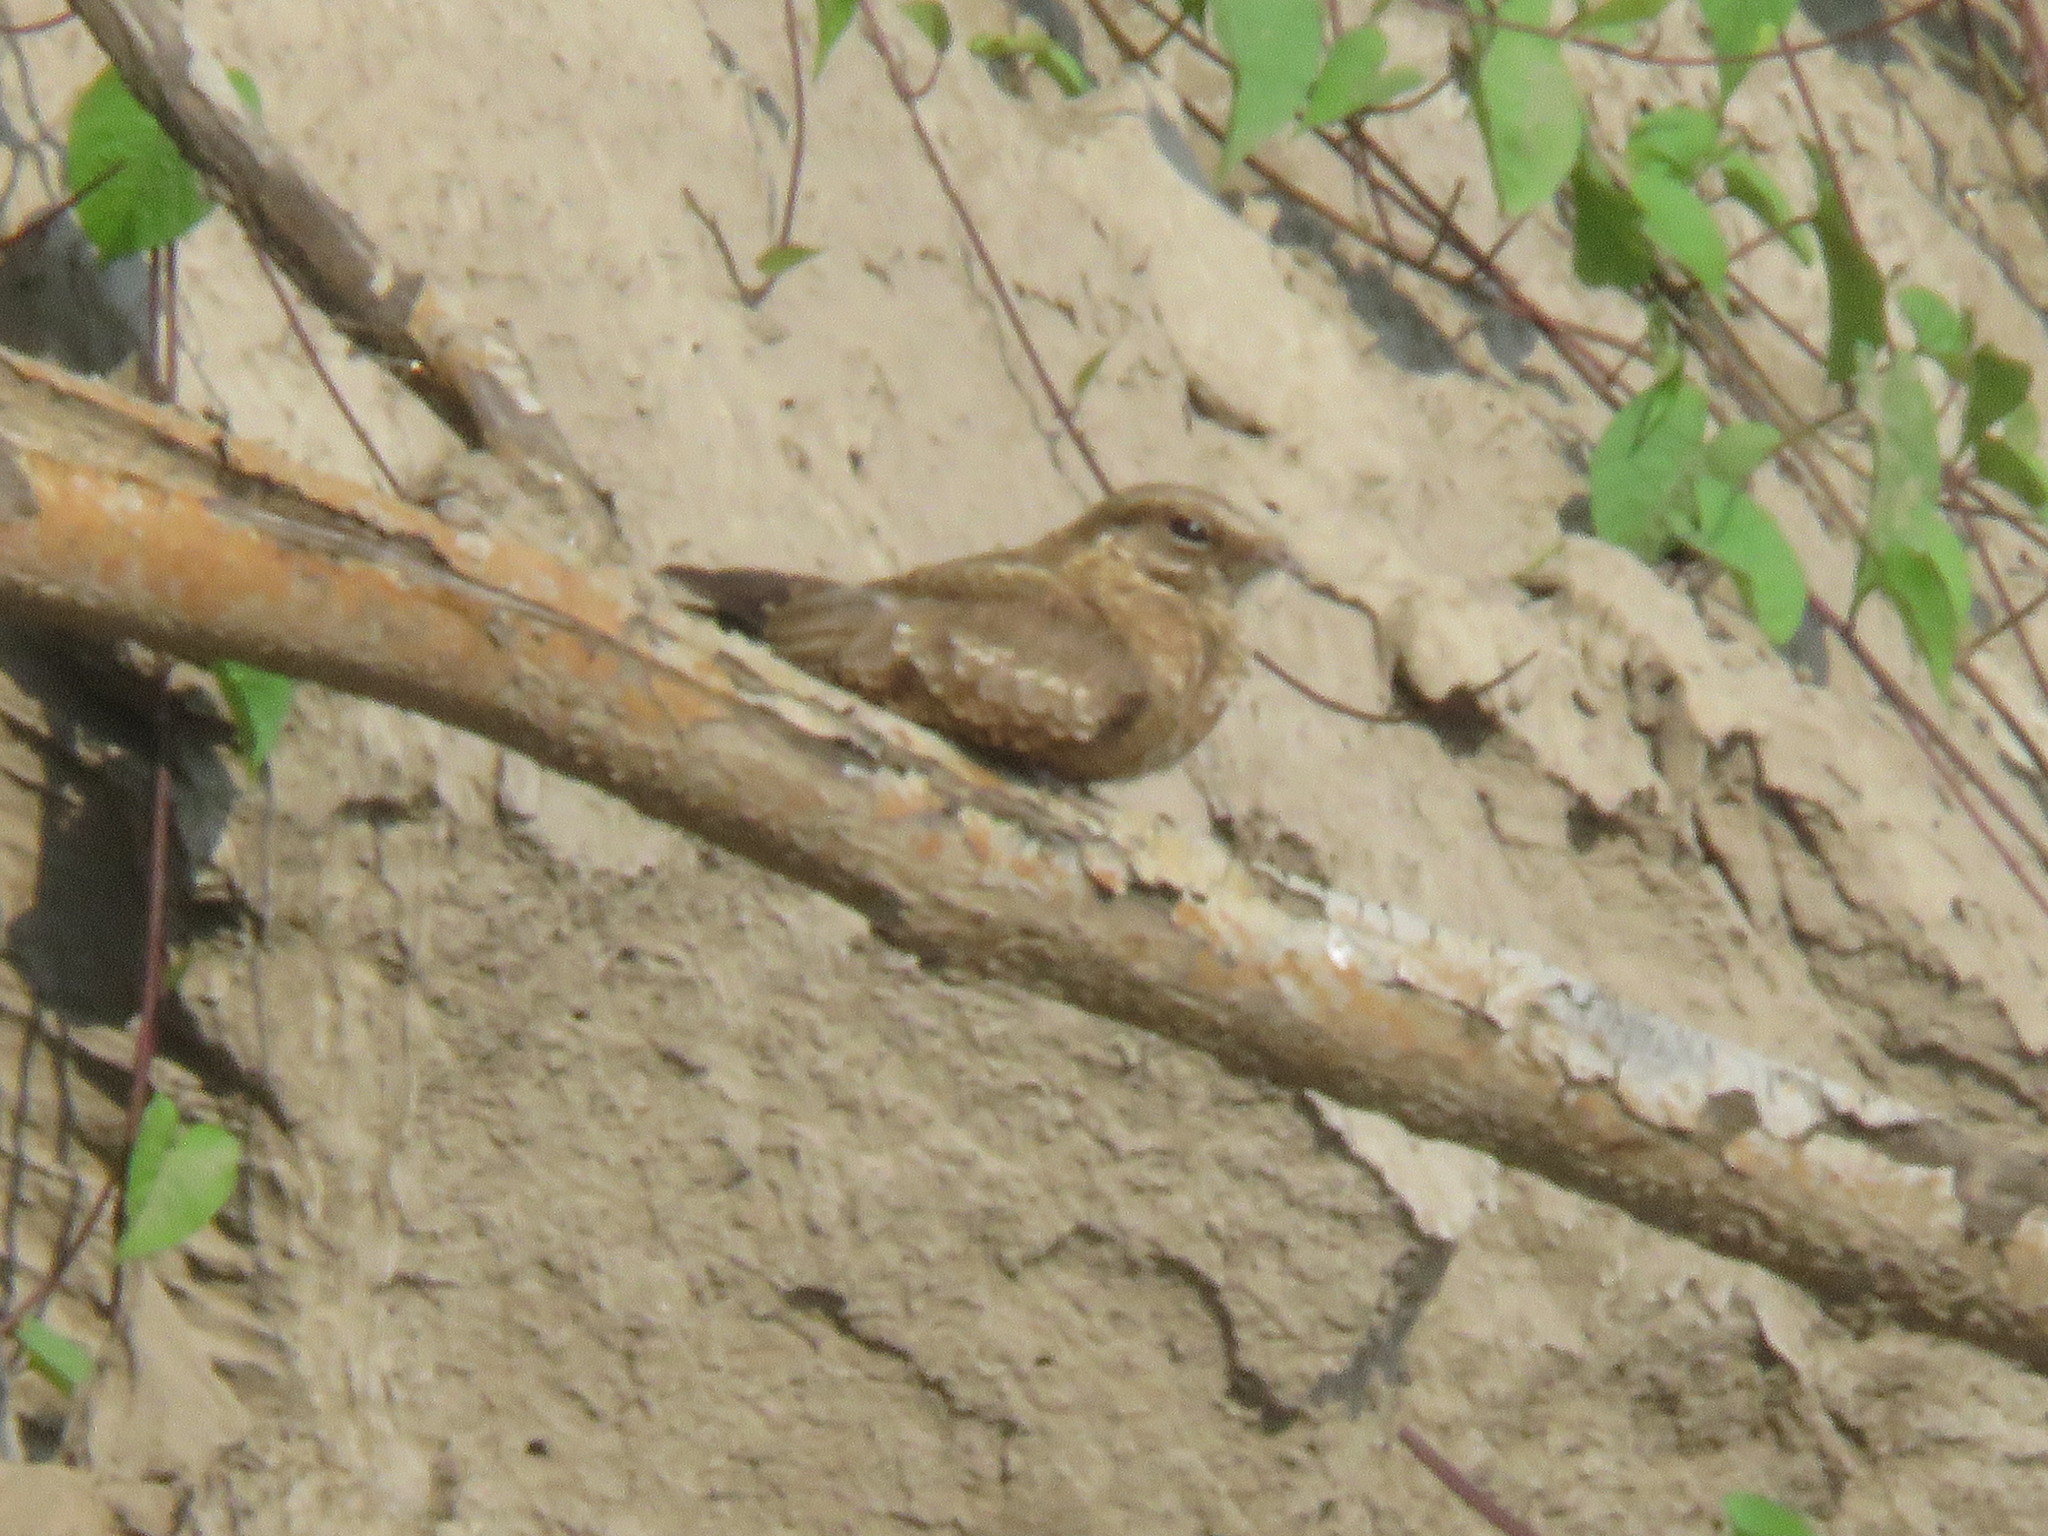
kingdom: Animalia
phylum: Chordata
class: Aves
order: Caprimulgiformes
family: Caprimulgidae
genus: Hydropsalis
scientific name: Hydropsalis climacocerca
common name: Ladder-tailed nightjar
